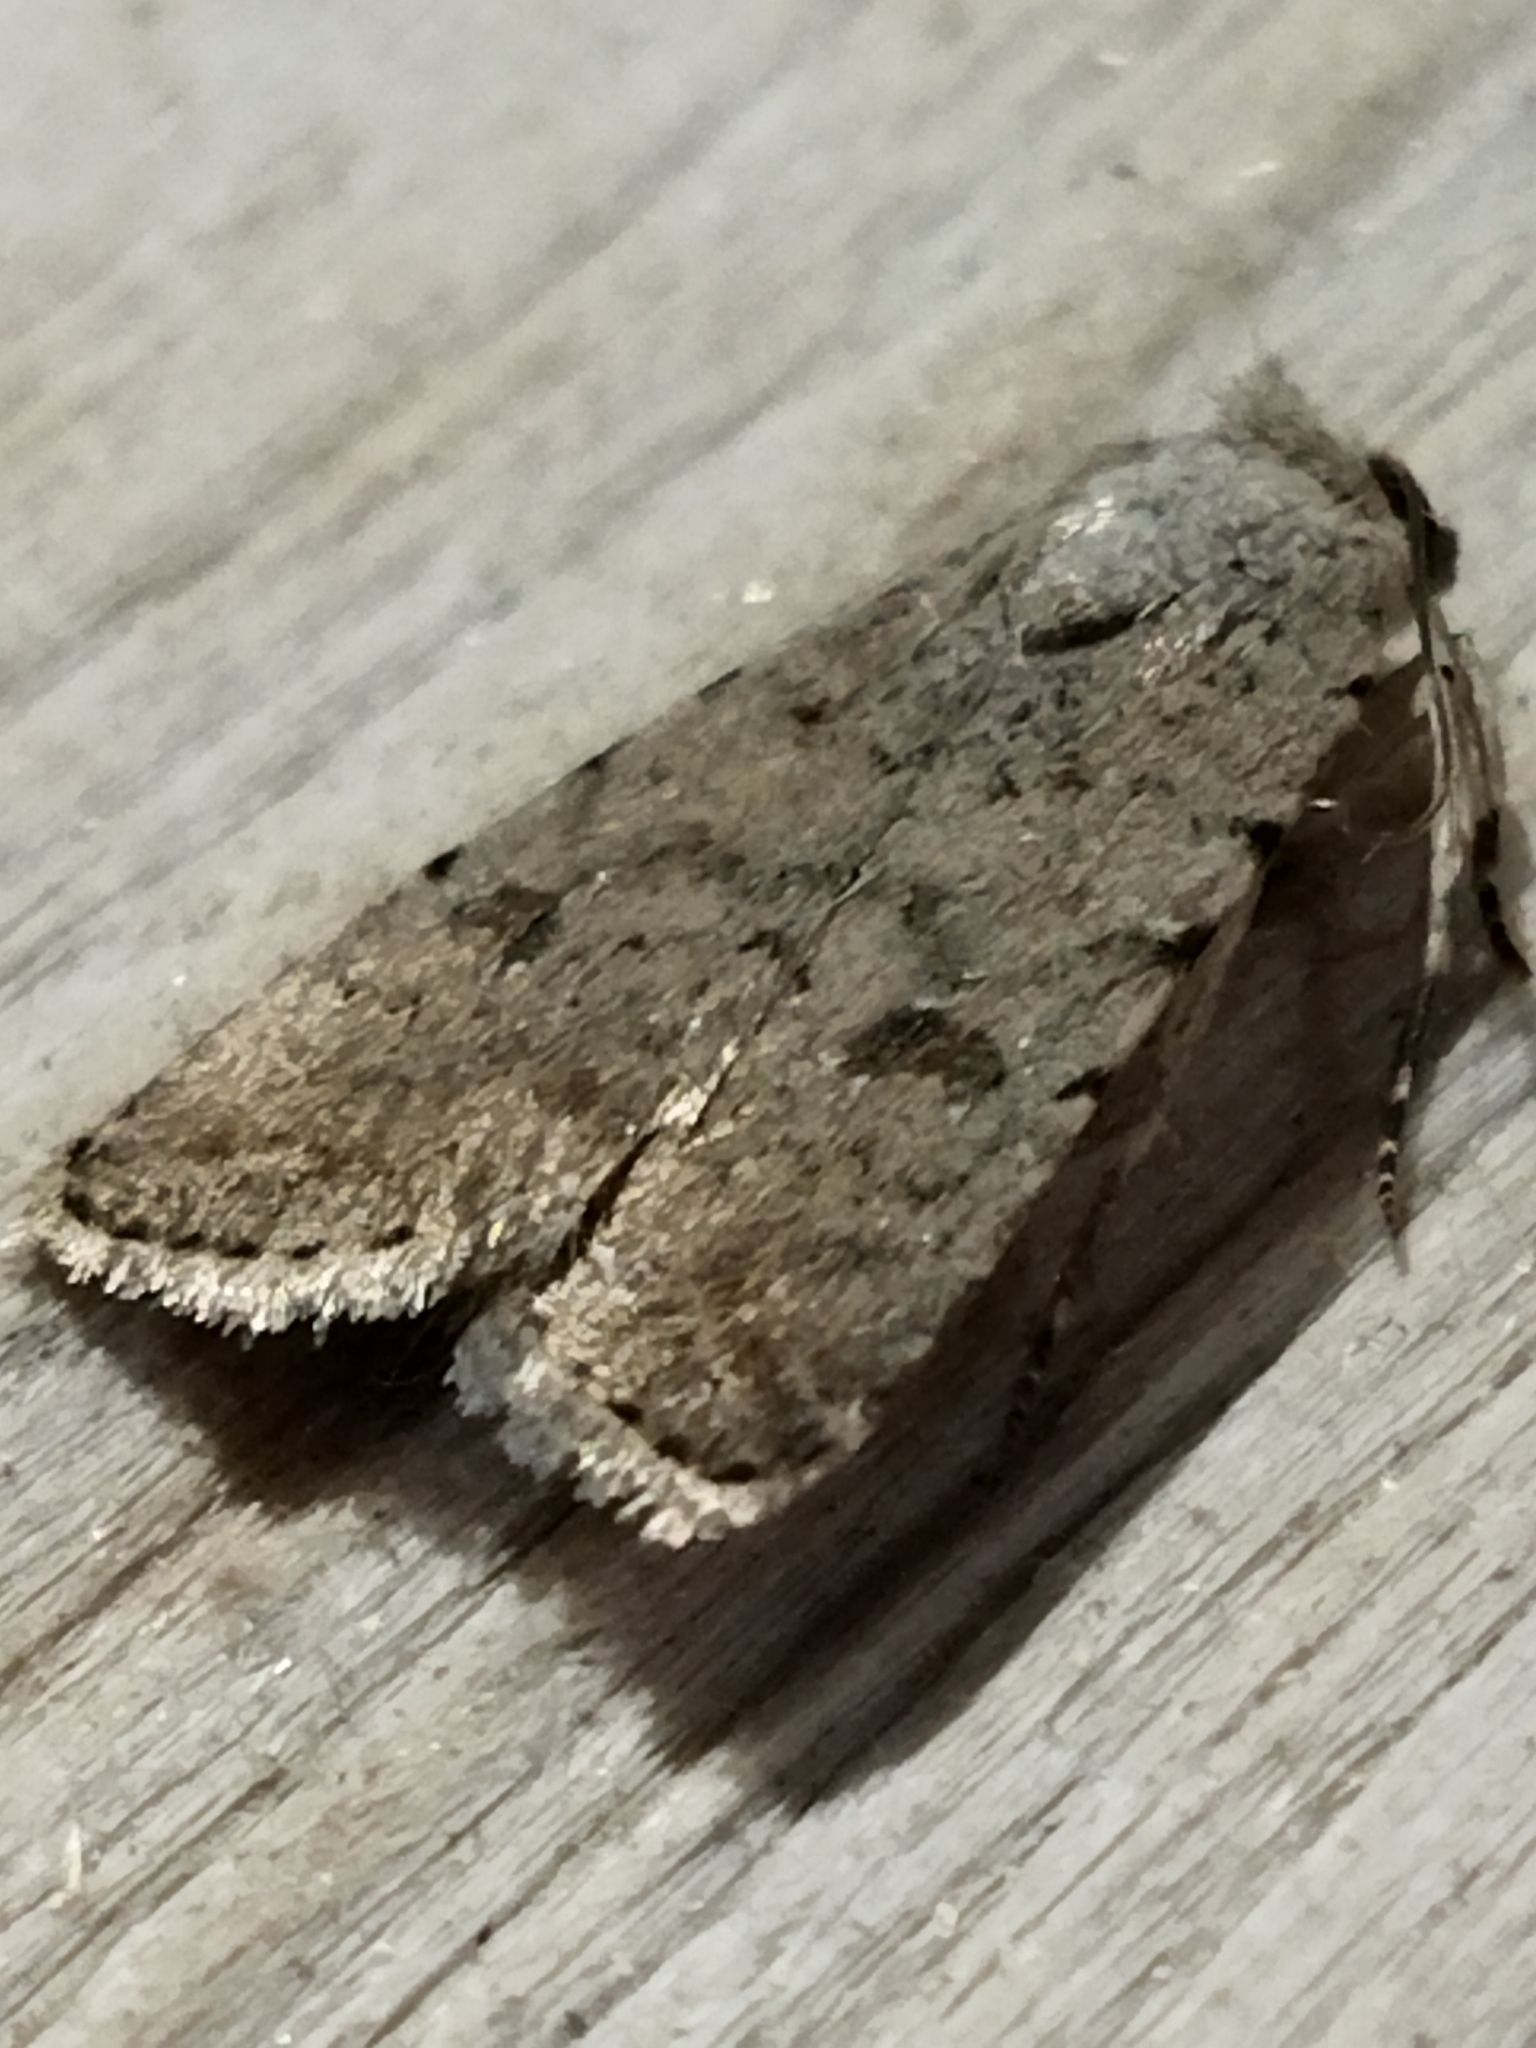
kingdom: Animalia
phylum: Arthropoda
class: Insecta
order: Lepidoptera
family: Noctuidae
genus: Caradrina
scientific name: Caradrina clavipalpis
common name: Pale mottled willow
